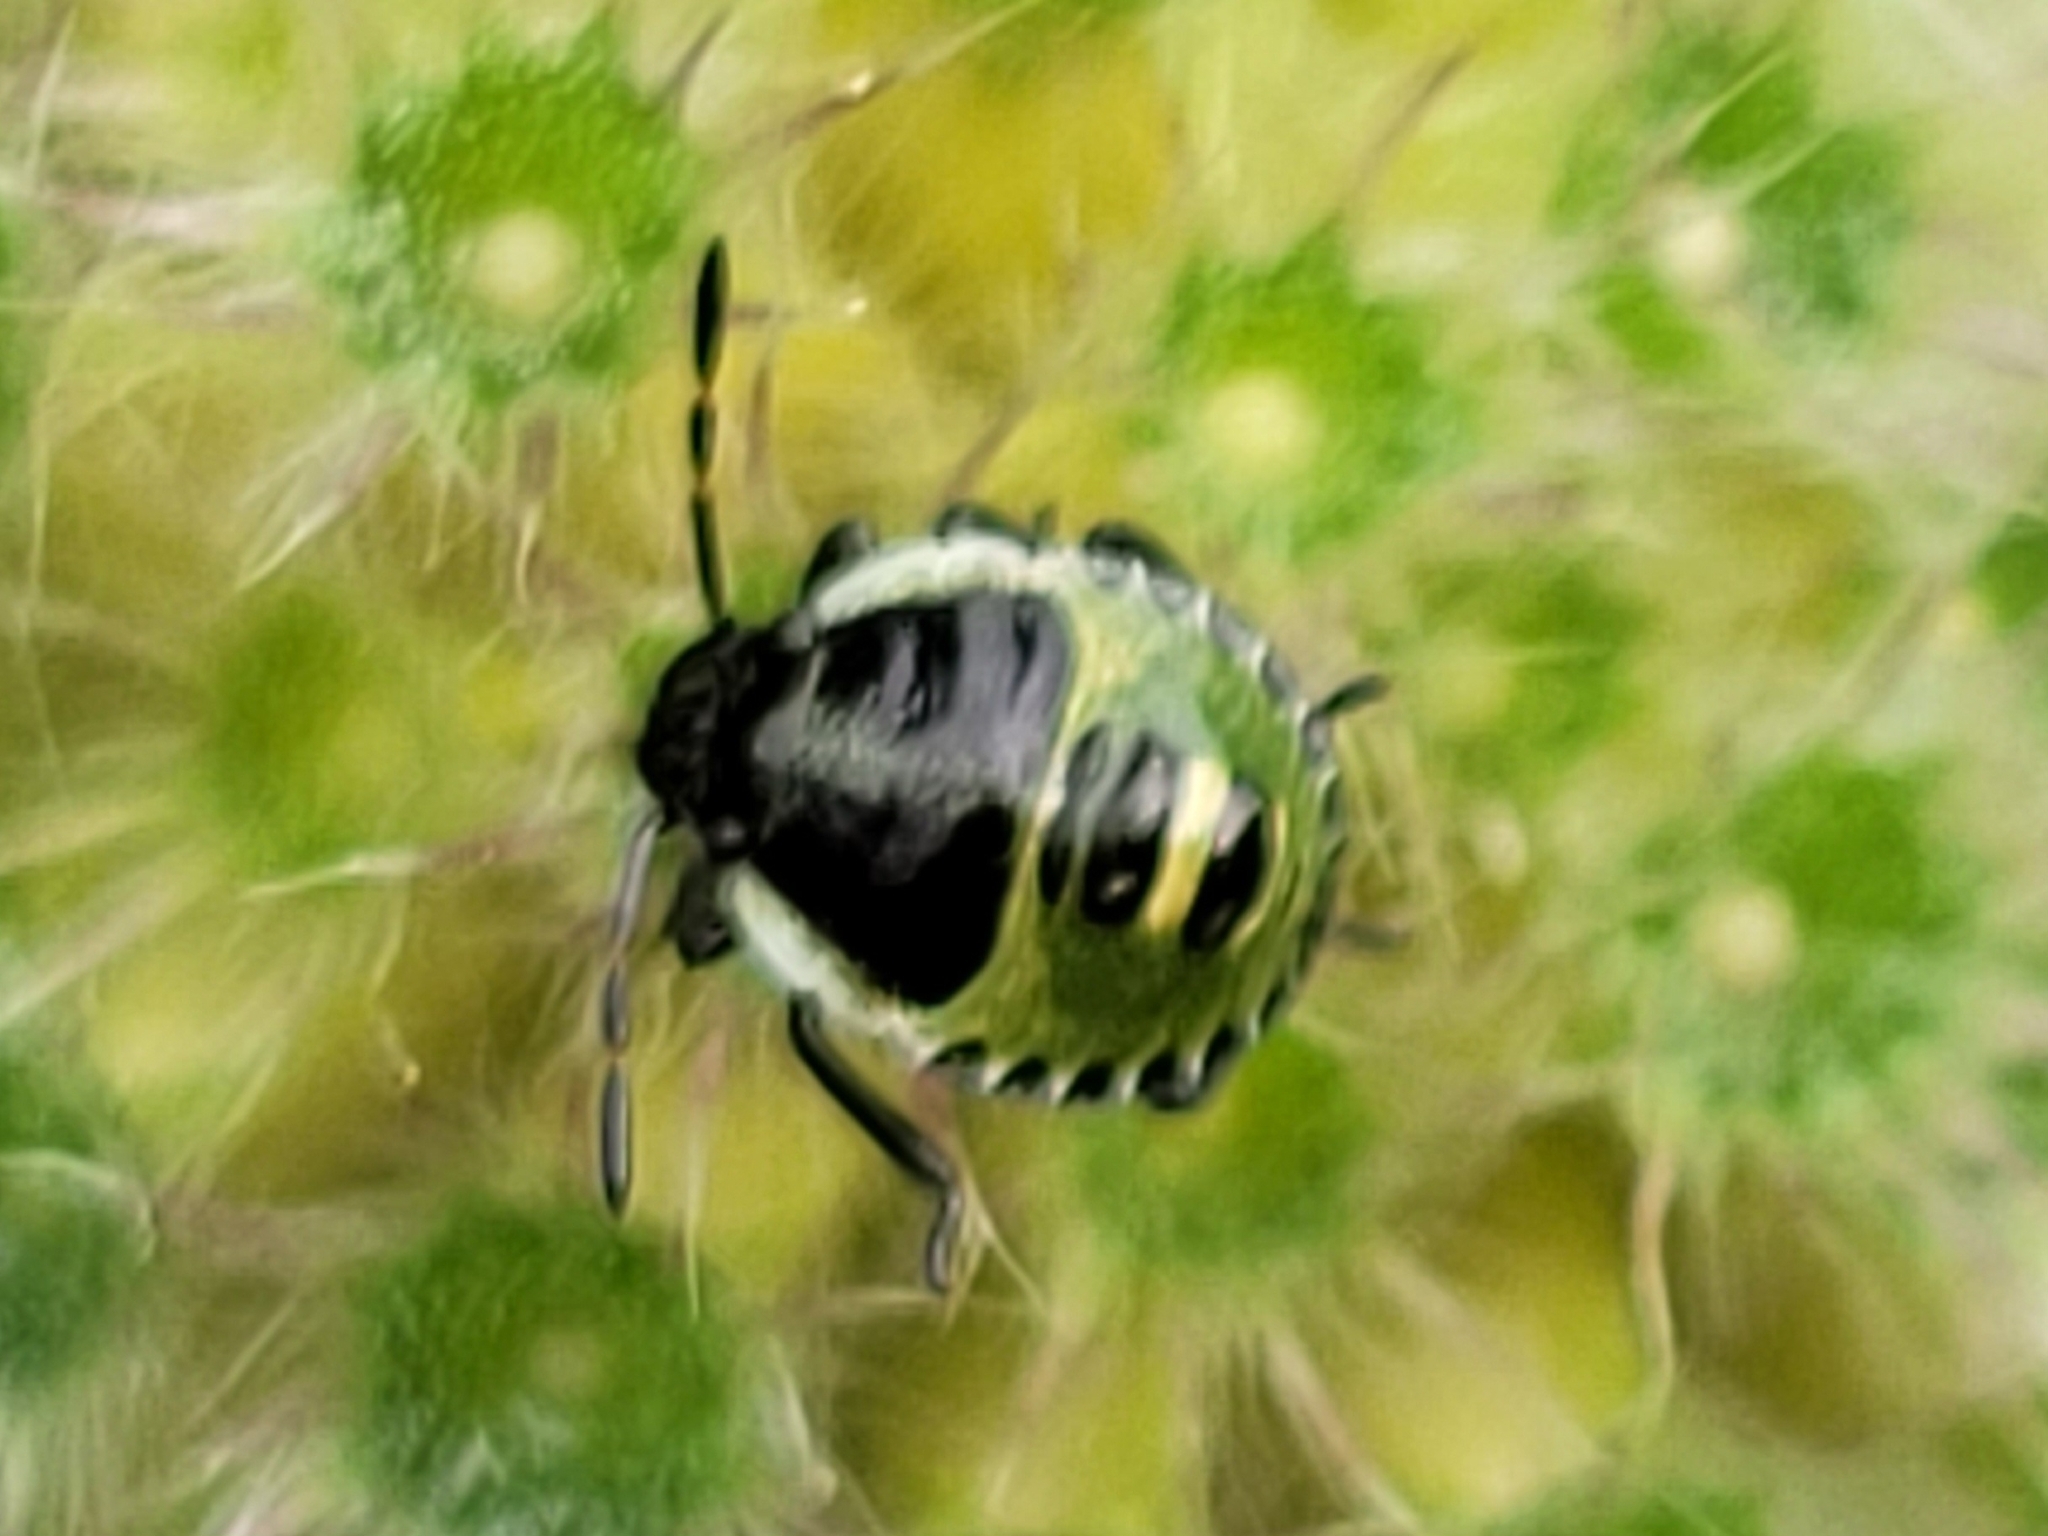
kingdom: Animalia
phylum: Arthropoda
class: Insecta
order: Hemiptera
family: Pentatomidae
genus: Palomena
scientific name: Palomena prasina
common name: Green shieldbug
